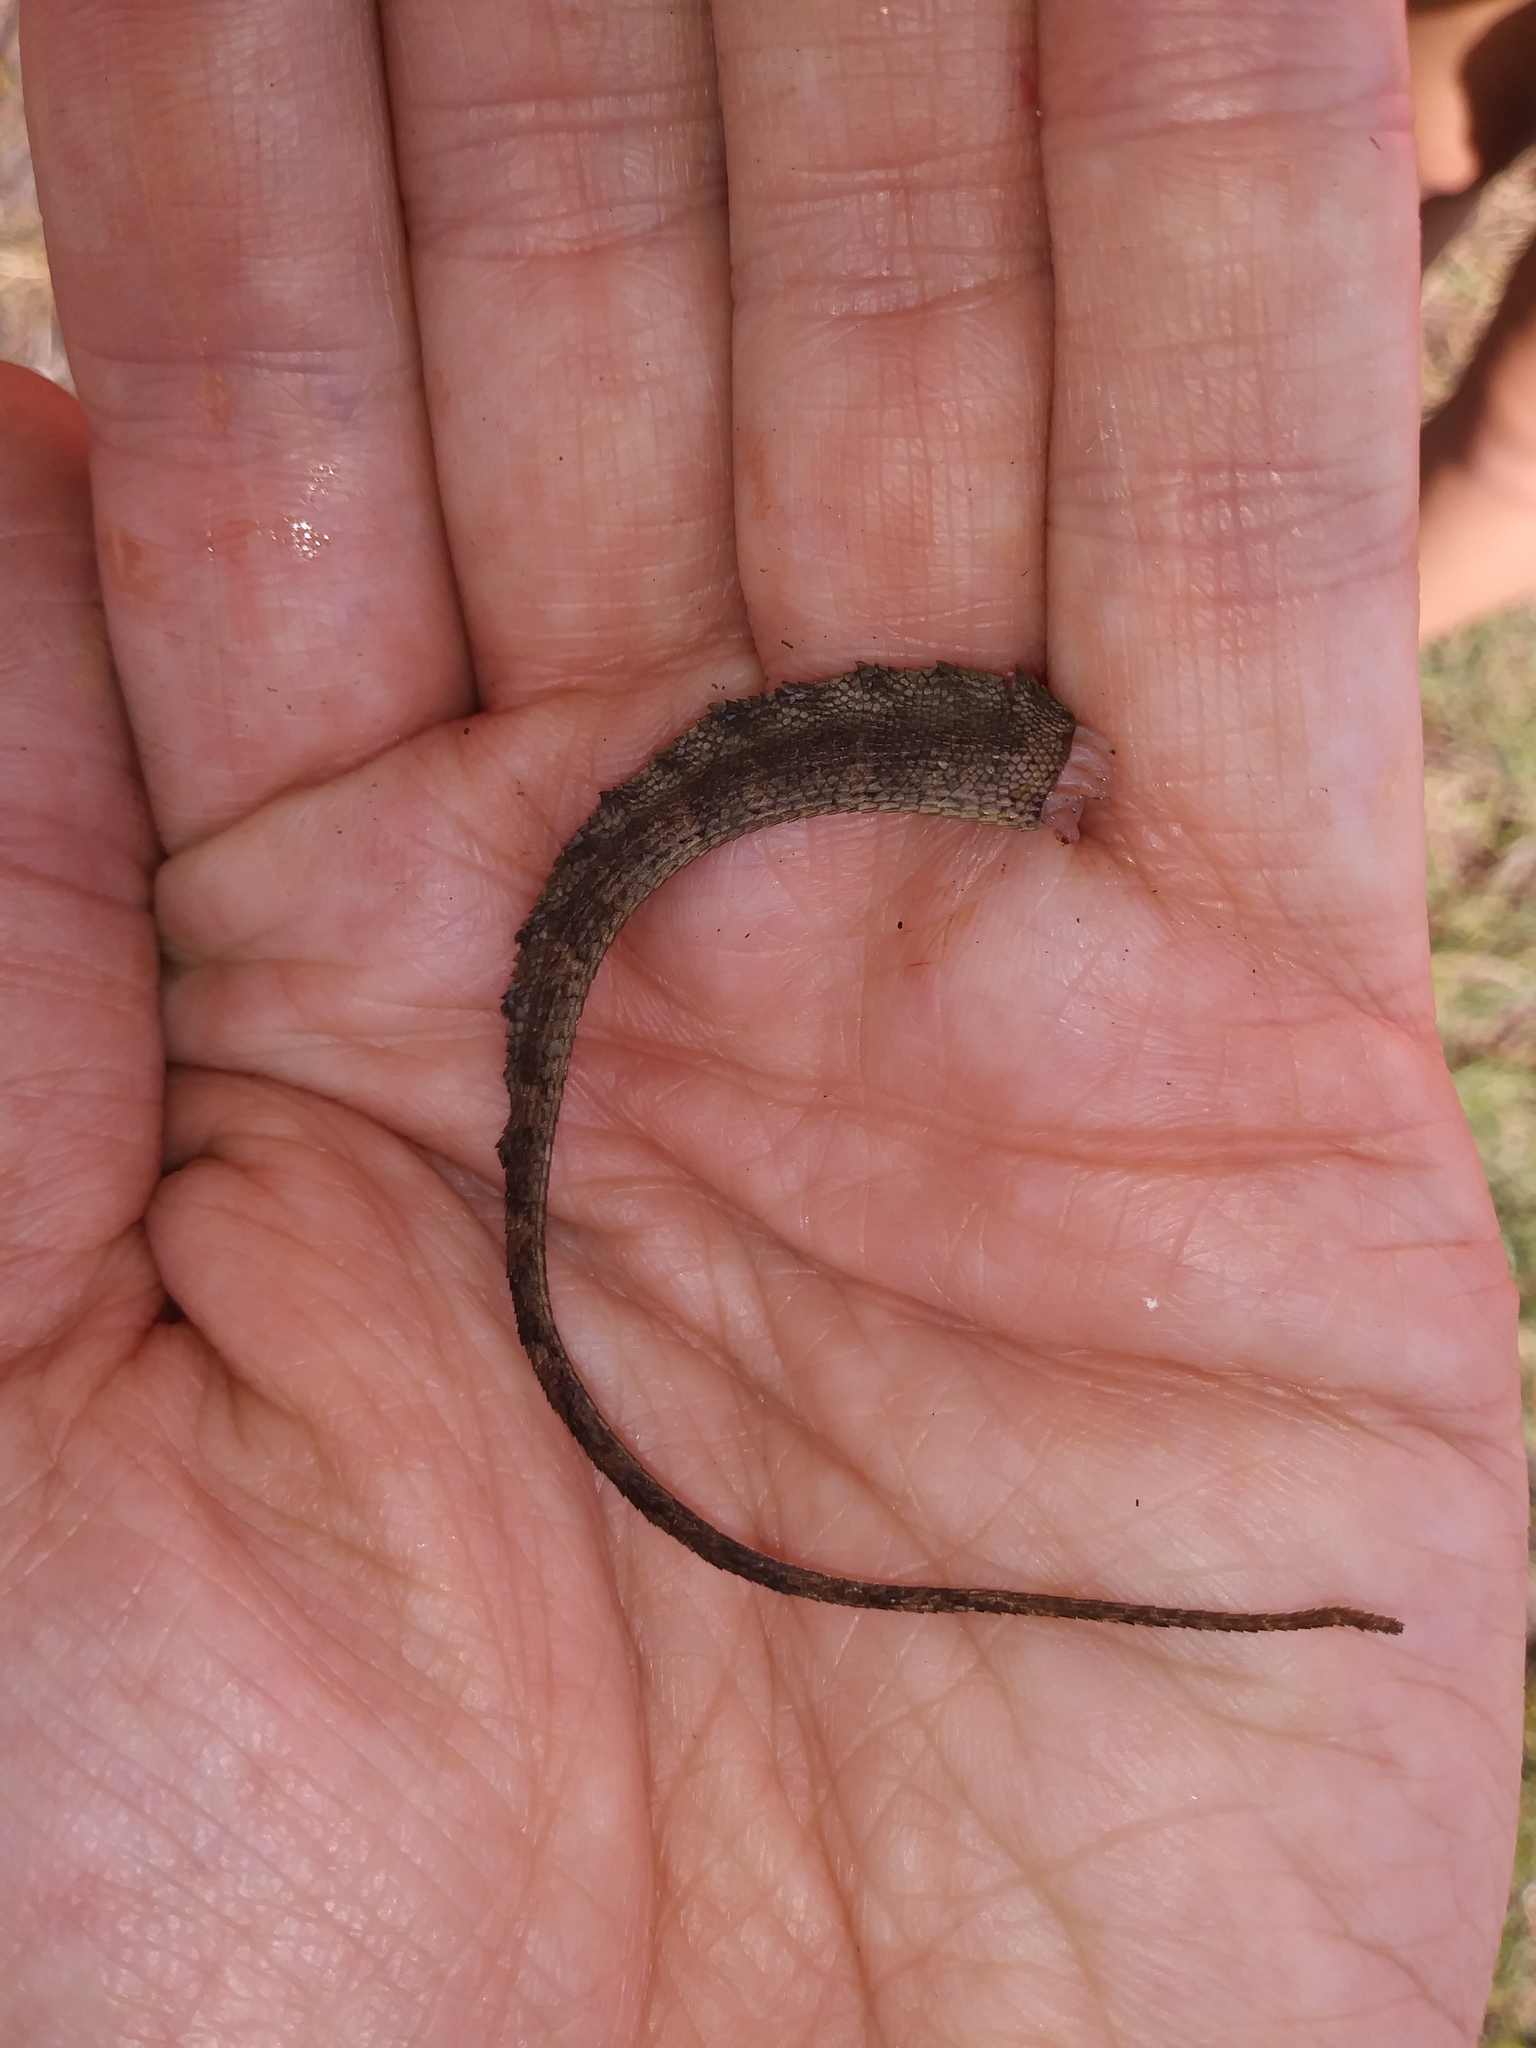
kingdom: Animalia
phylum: Chordata
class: Squamata
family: Dactyloidae
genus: Anolis
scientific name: Anolis cristatellus
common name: Crested anole
